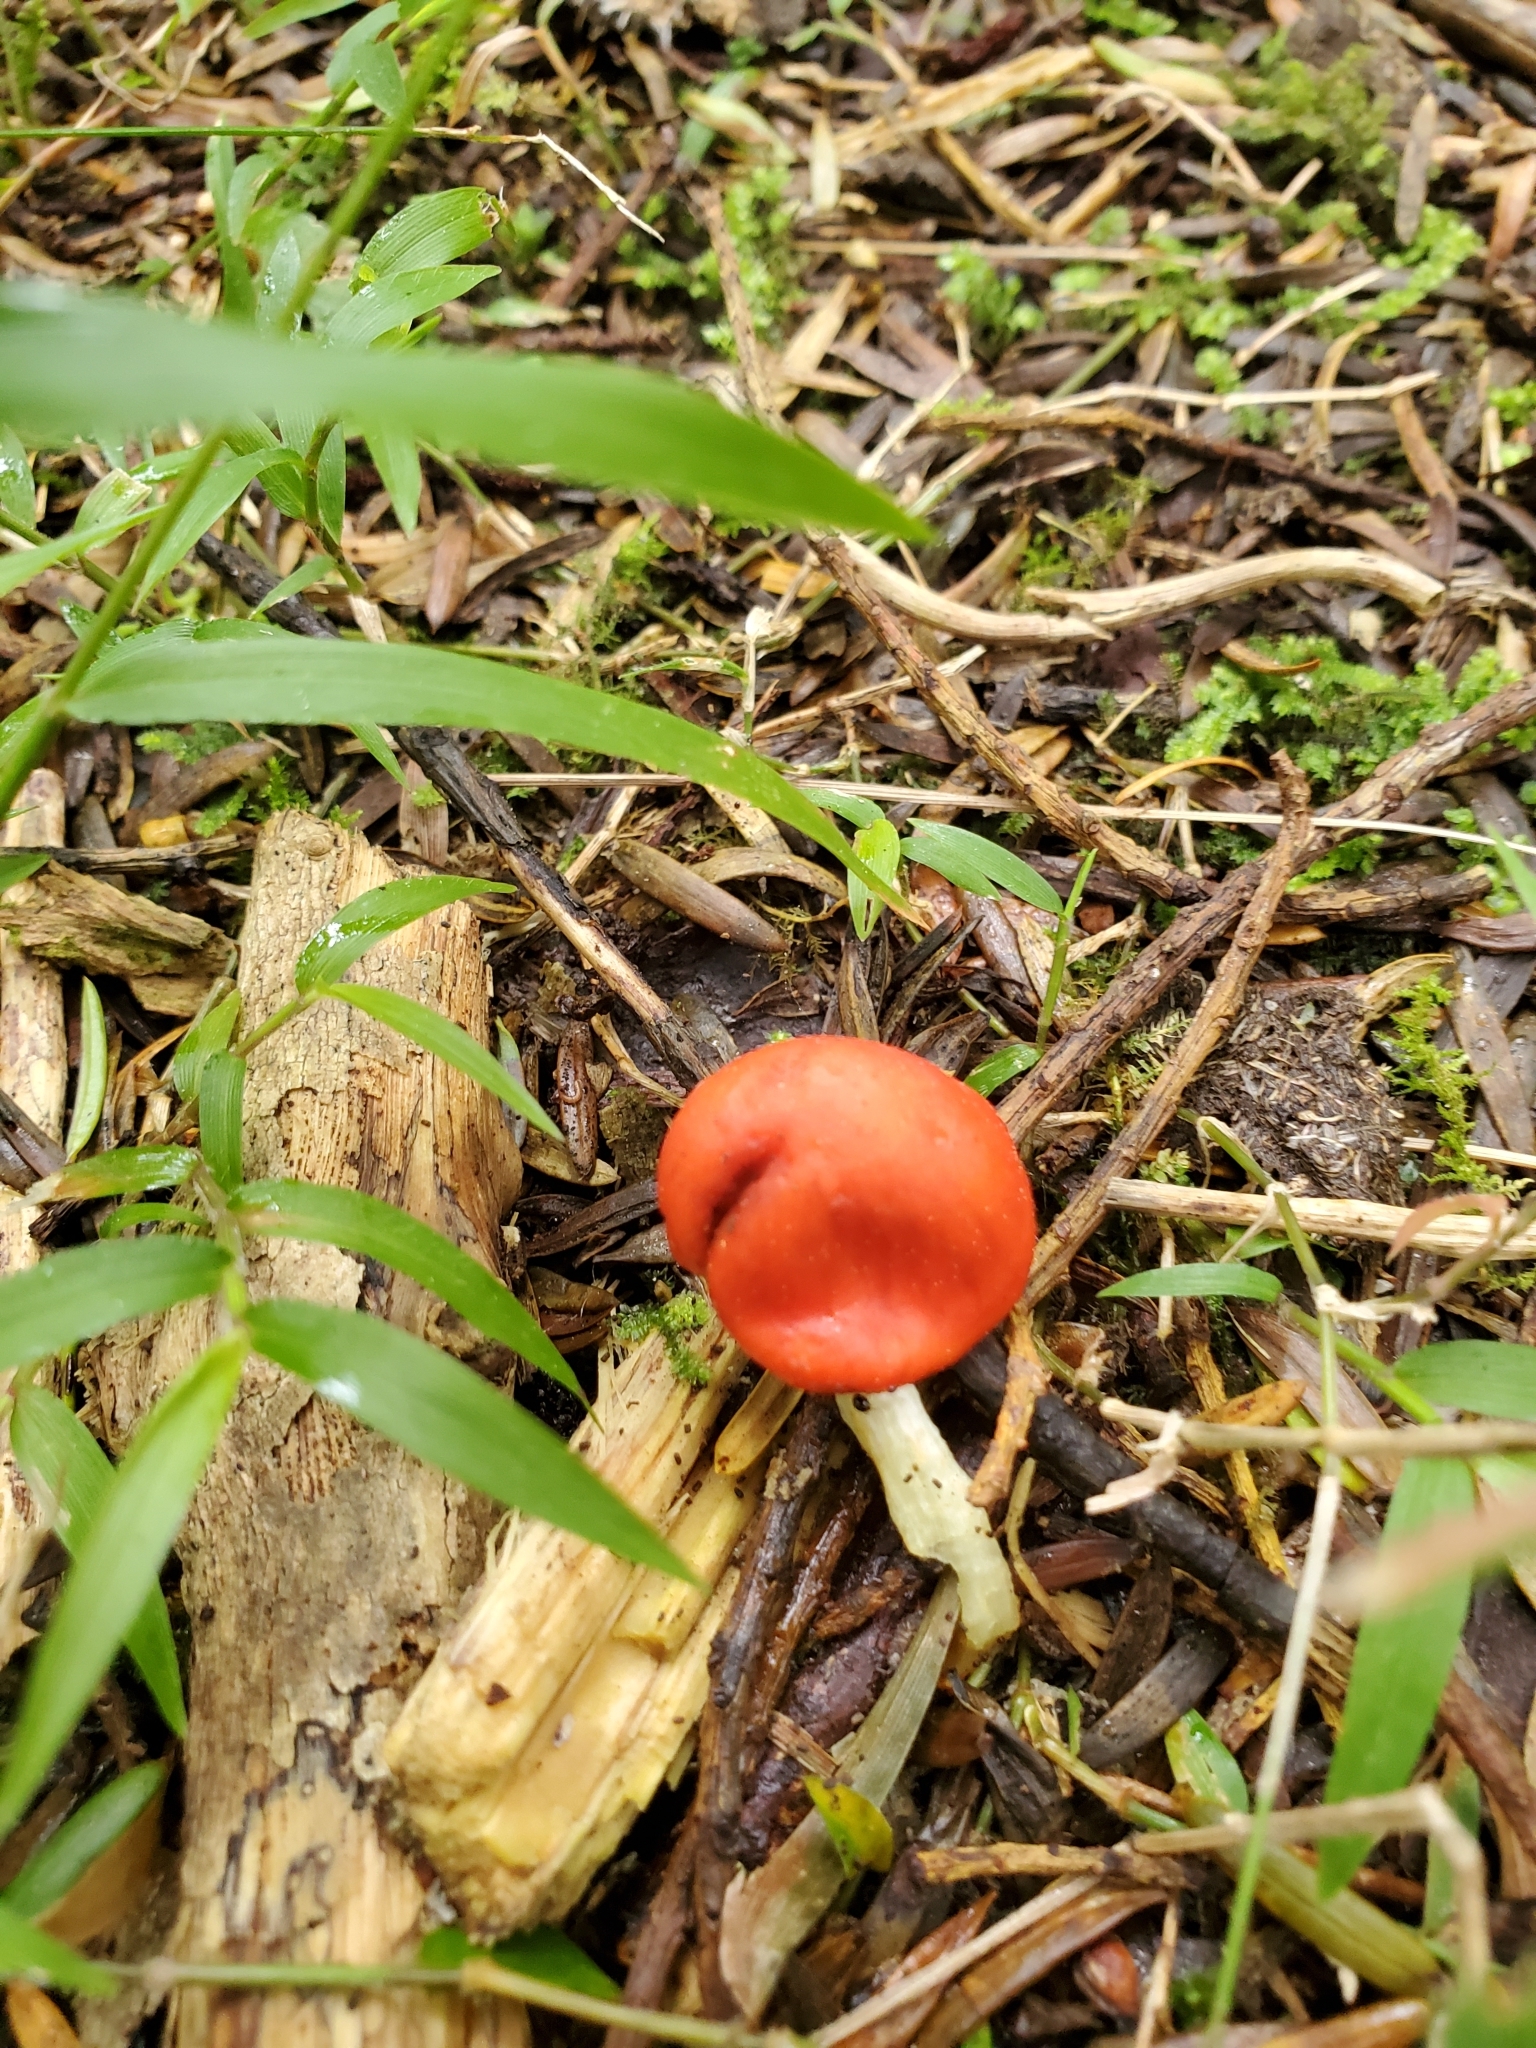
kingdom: Fungi
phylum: Basidiomycota
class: Agaricomycetes
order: Agaricales
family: Strophariaceae
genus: Leratiomyces
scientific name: Leratiomyces erythrocephalus
